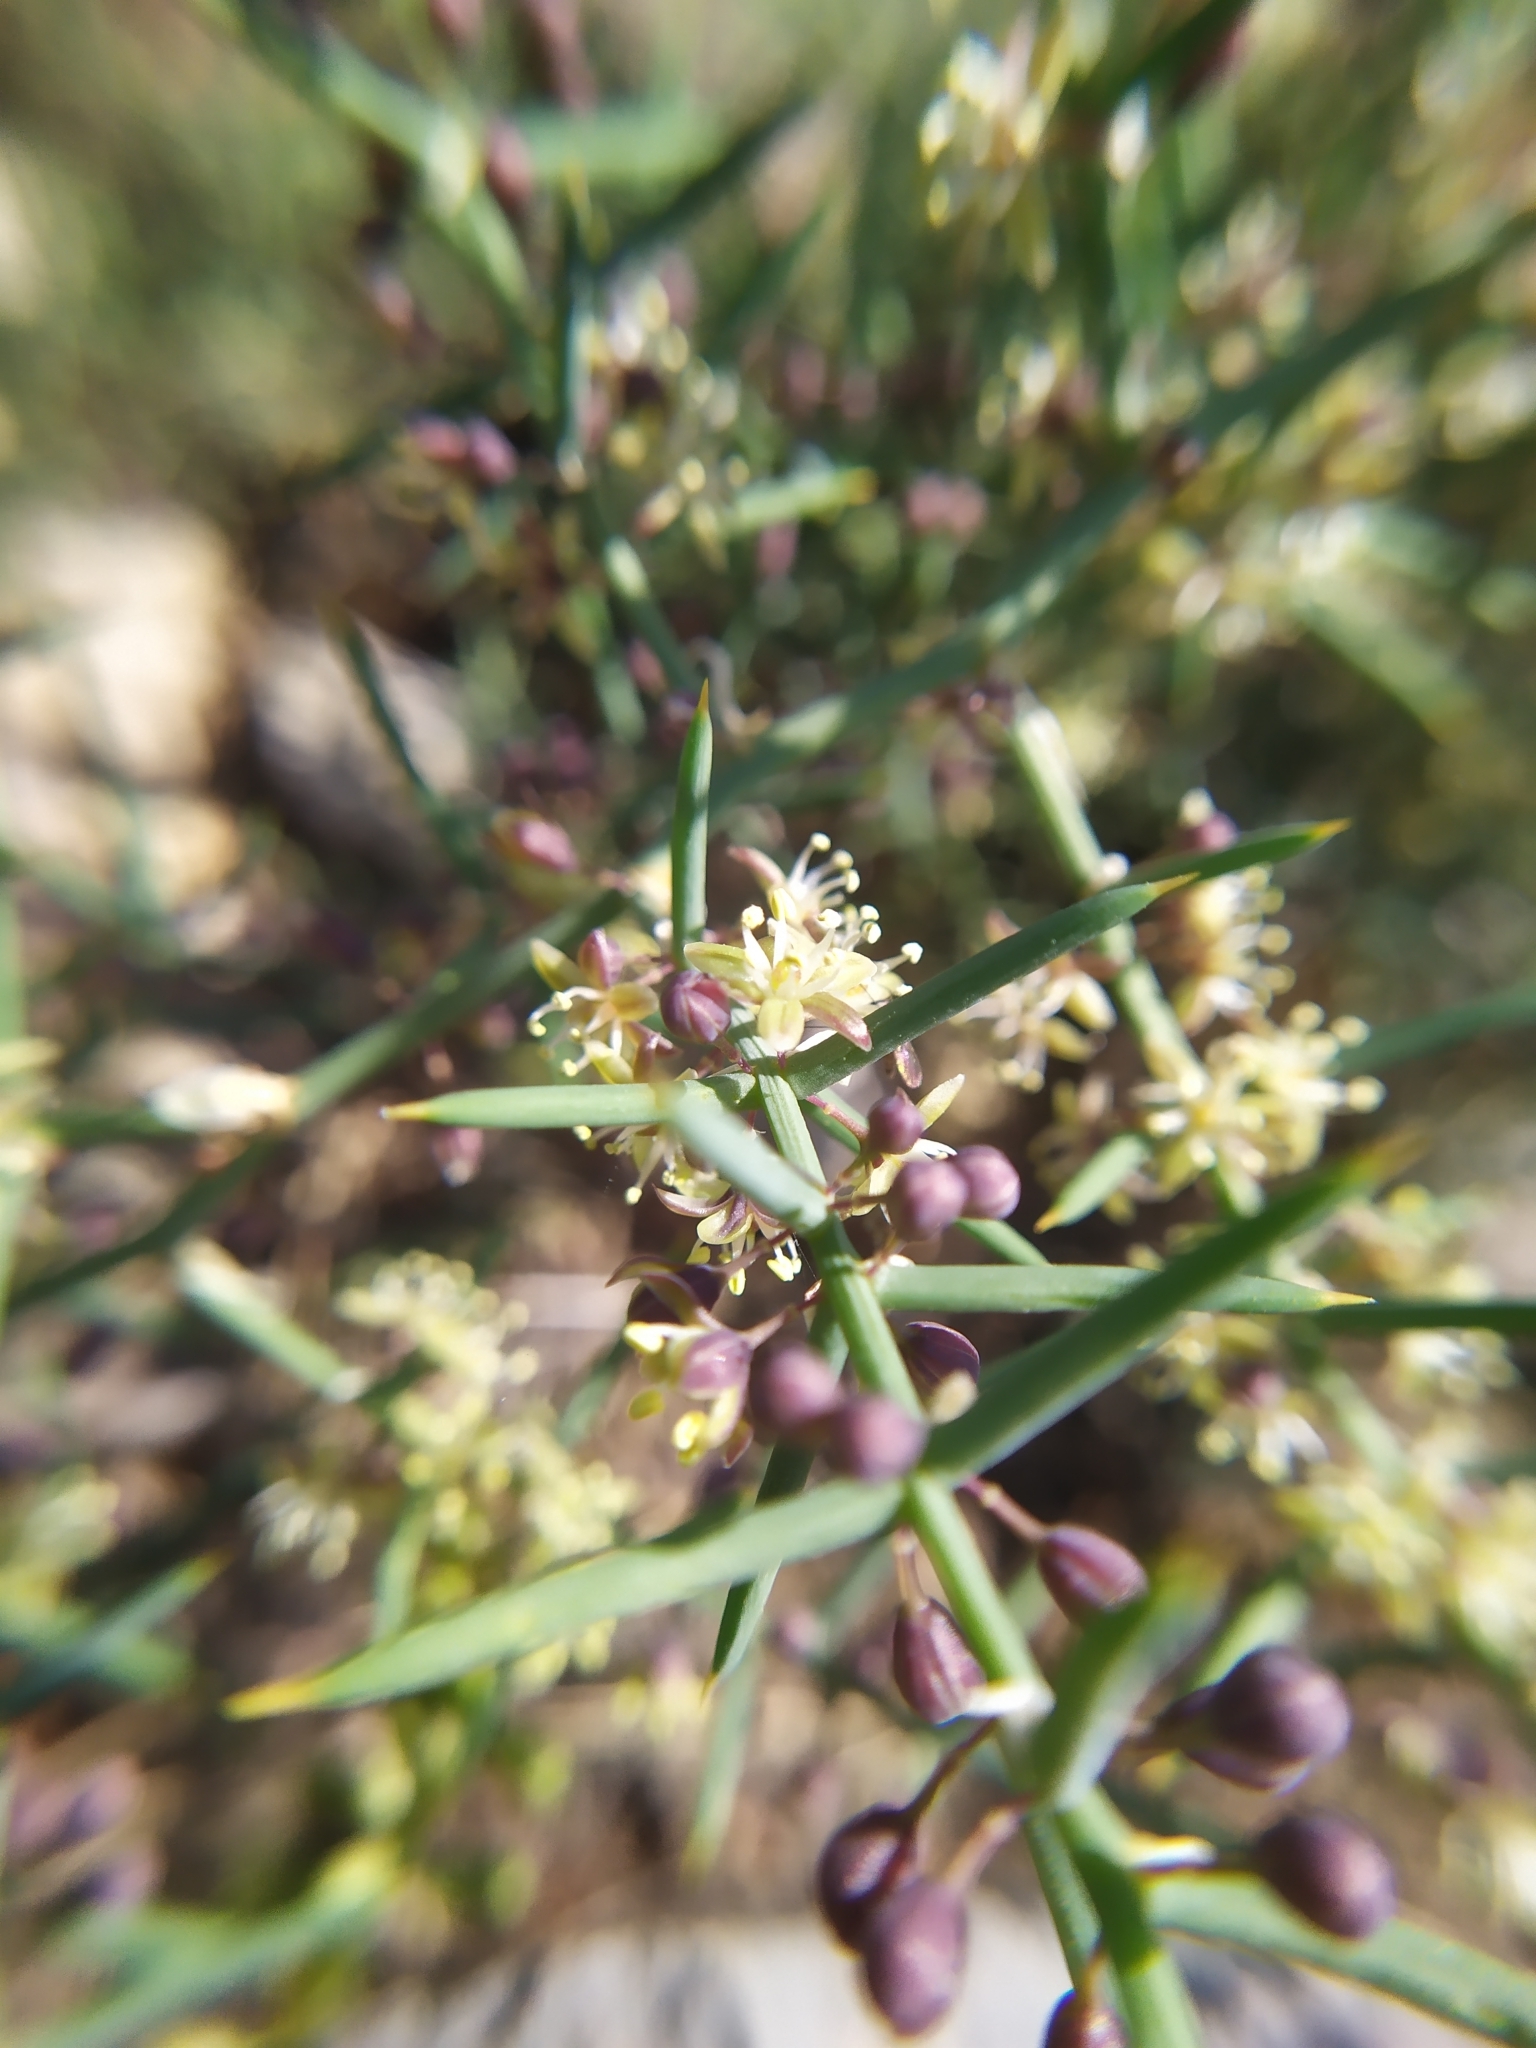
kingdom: Plantae
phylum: Tracheophyta
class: Liliopsida
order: Asparagales
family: Asparagaceae
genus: Asparagus
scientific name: Asparagus horridus
